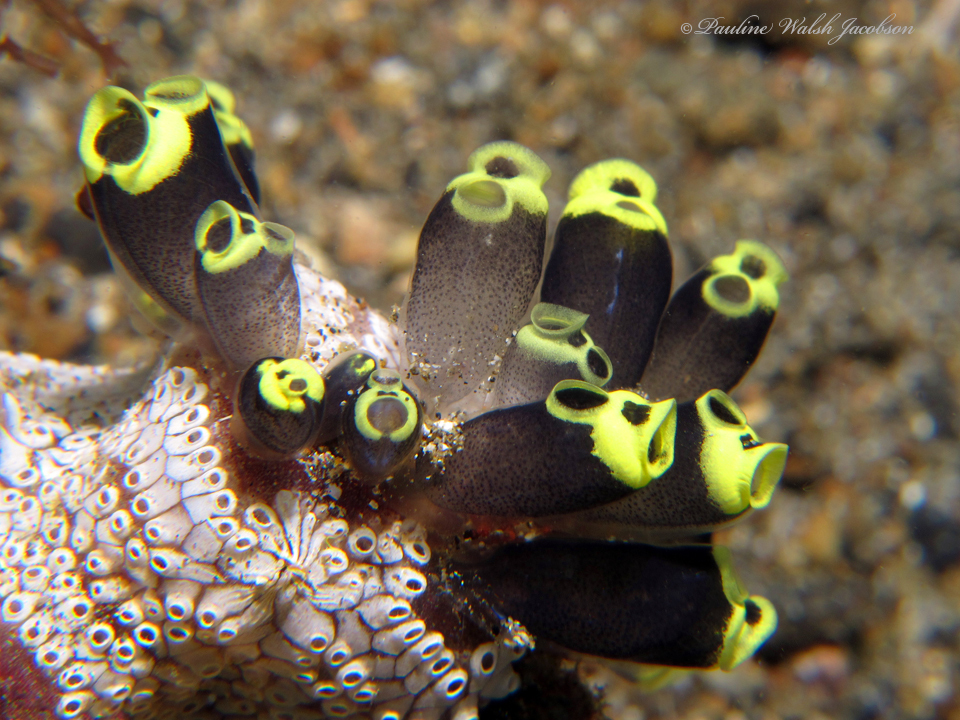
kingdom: Animalia
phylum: Chordata
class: Ascidiacea
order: Aplousobranchia
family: Clavelinidae
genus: Clavelina
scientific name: Clavelina robusta
